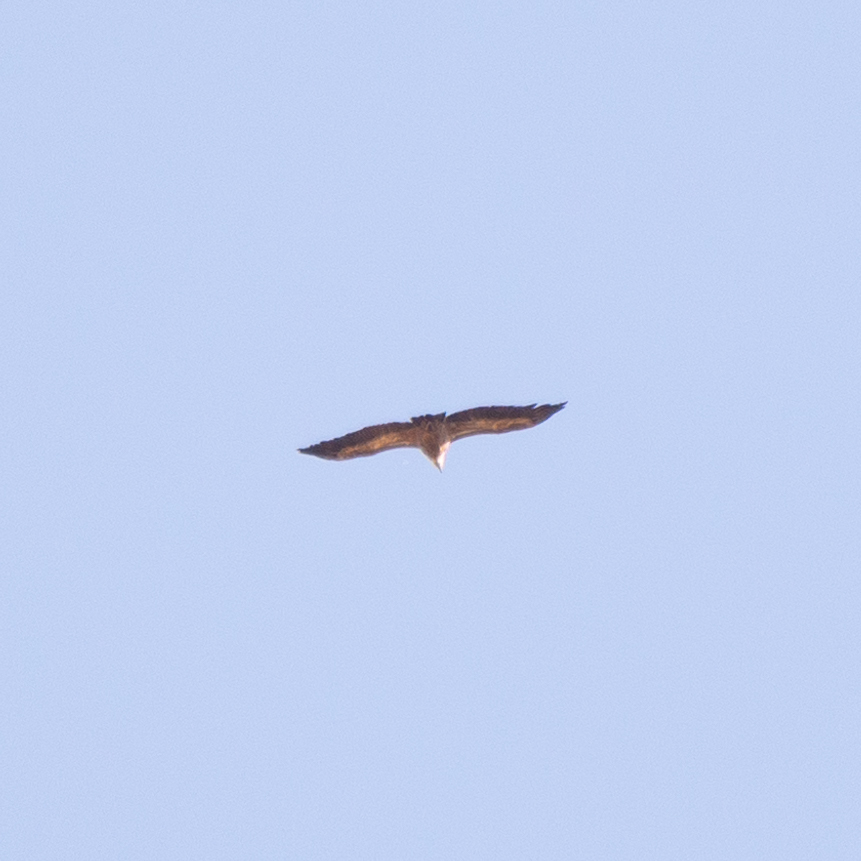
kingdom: Animalia
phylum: Chordata
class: Aves
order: Accipitriformes
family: Accipitridae
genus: Gyps
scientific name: Gyps fulvus
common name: Griffon vulture
